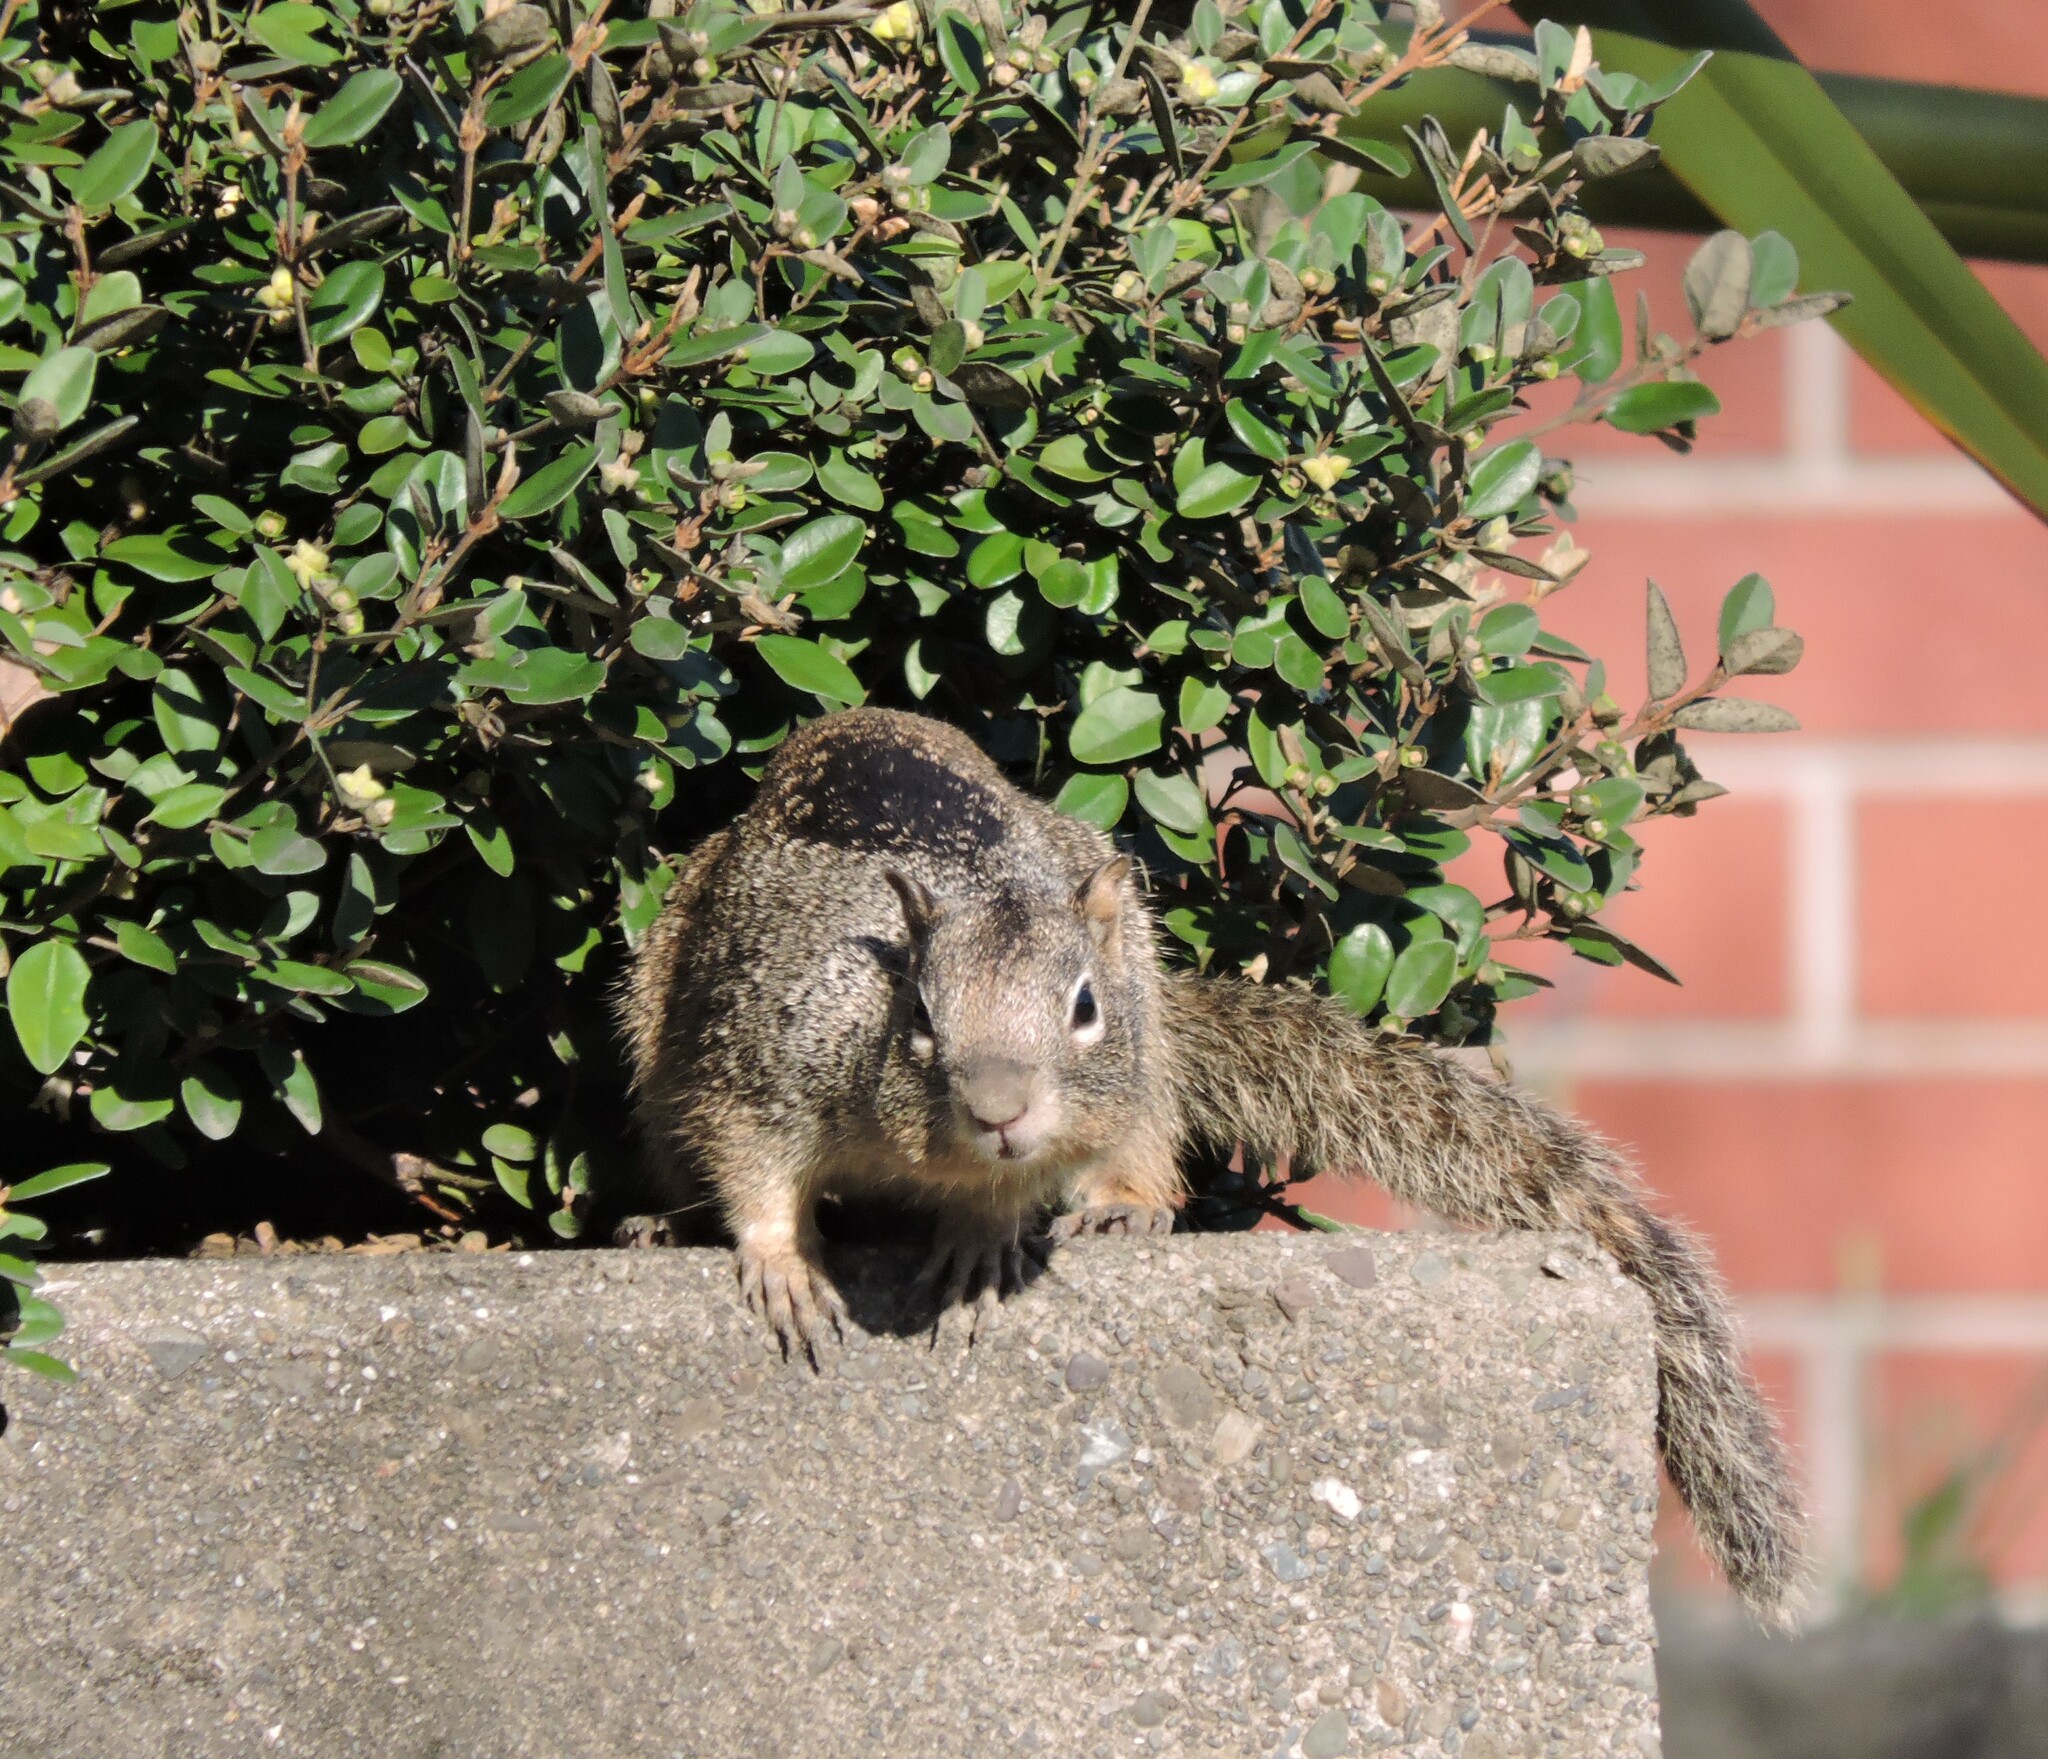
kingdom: Animalia
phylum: Chordata
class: Mammalia
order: Rodentia
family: Sciuridae
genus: Otospermophilus
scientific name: Otospermophilus beecheyi
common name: California ground squirrel
